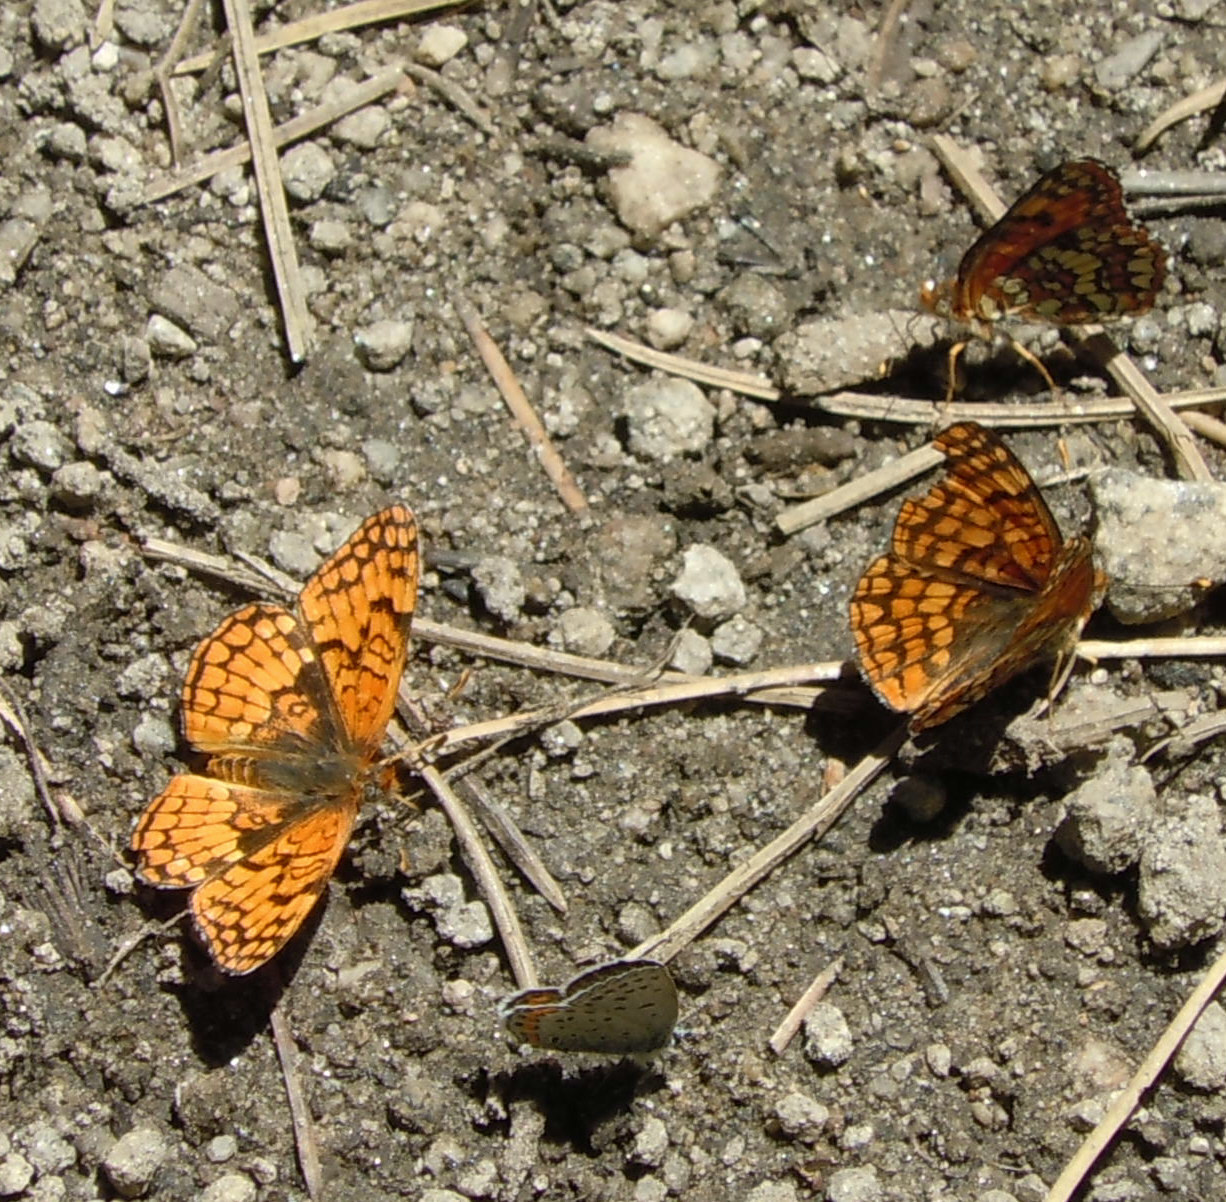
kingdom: Animalia
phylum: Arthropoda
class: Insecta
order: Lepidoptera
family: Nymphalidae
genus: Chlosyne
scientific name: Chlosyne palla
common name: Northern checkerspot
